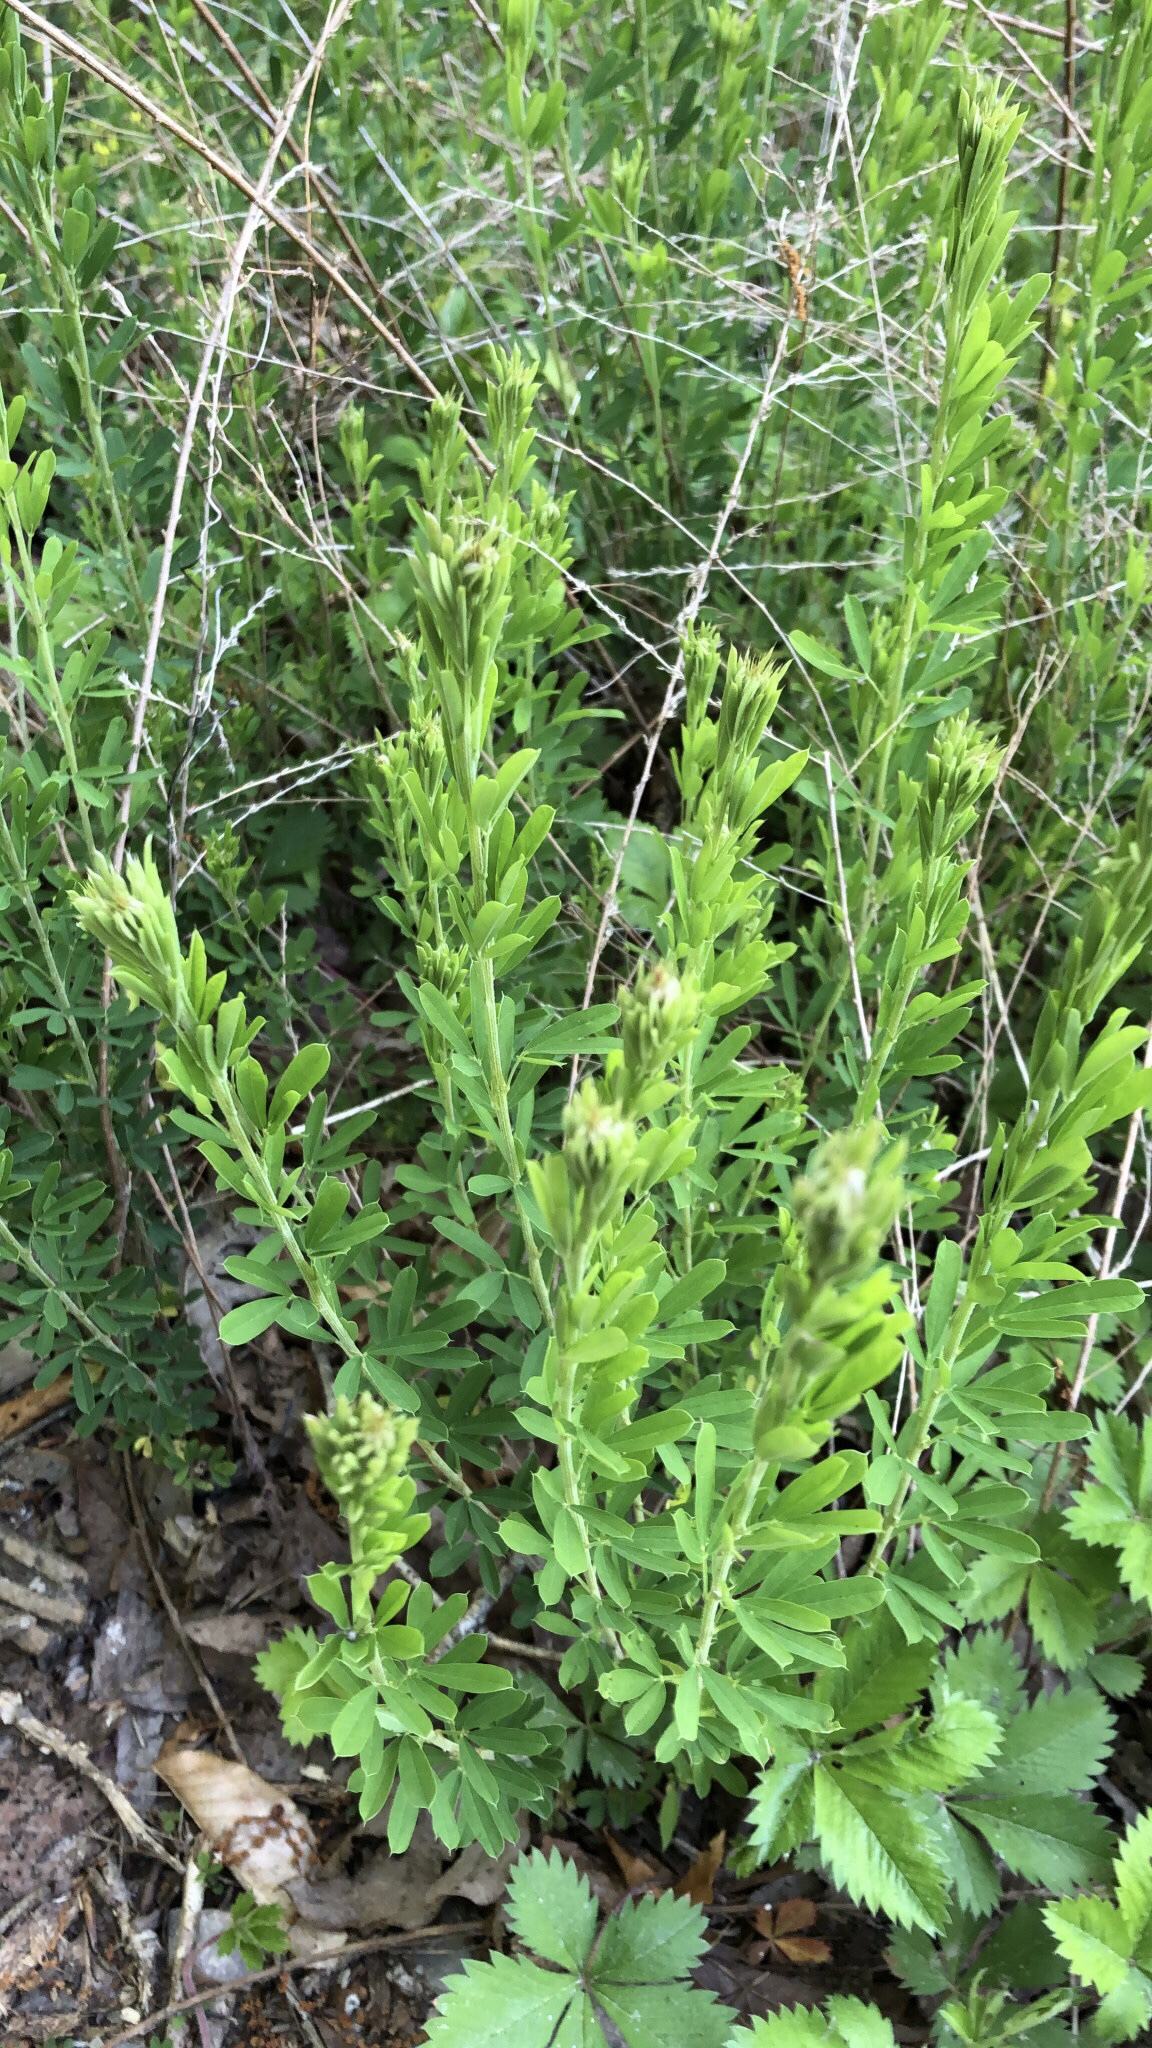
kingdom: Plantae
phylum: Tracheophyta
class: Magnoliopsida
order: Fabales
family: Fabaceae
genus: Lespedeza
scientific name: Lespedeza cuneata
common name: Chinese bush-clover
